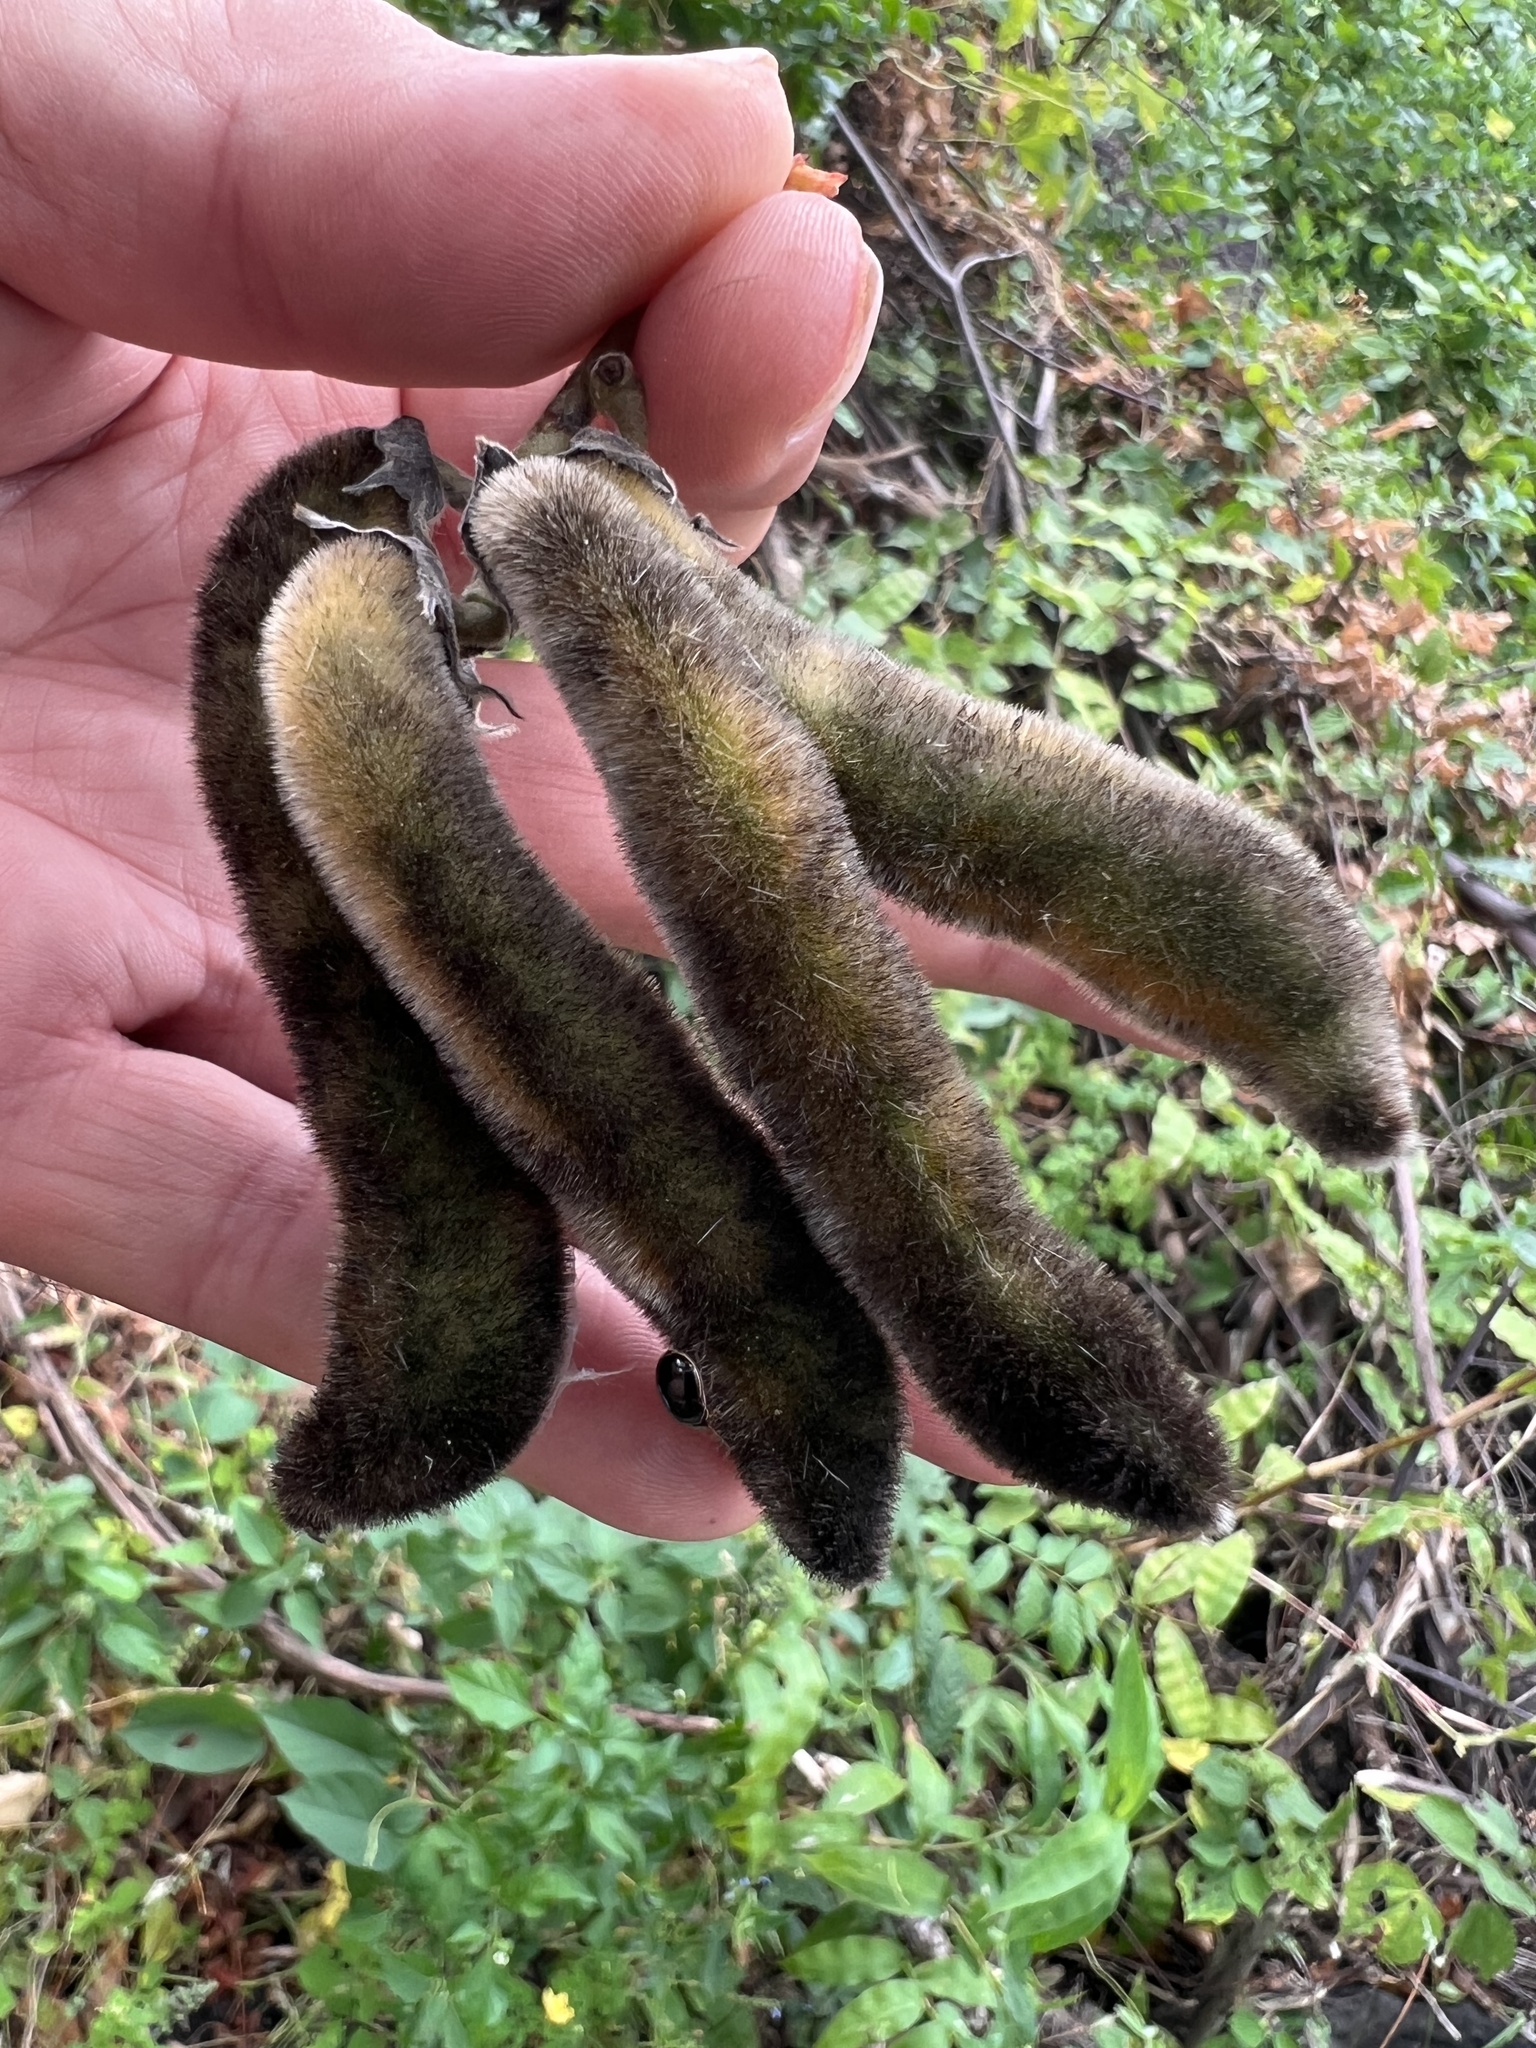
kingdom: Plantae
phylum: Tracheophyta
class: Magnoliopsida
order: Fabales
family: Fabaceae
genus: Mucuna
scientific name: Mucuna pruriens
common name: Cow-itch
